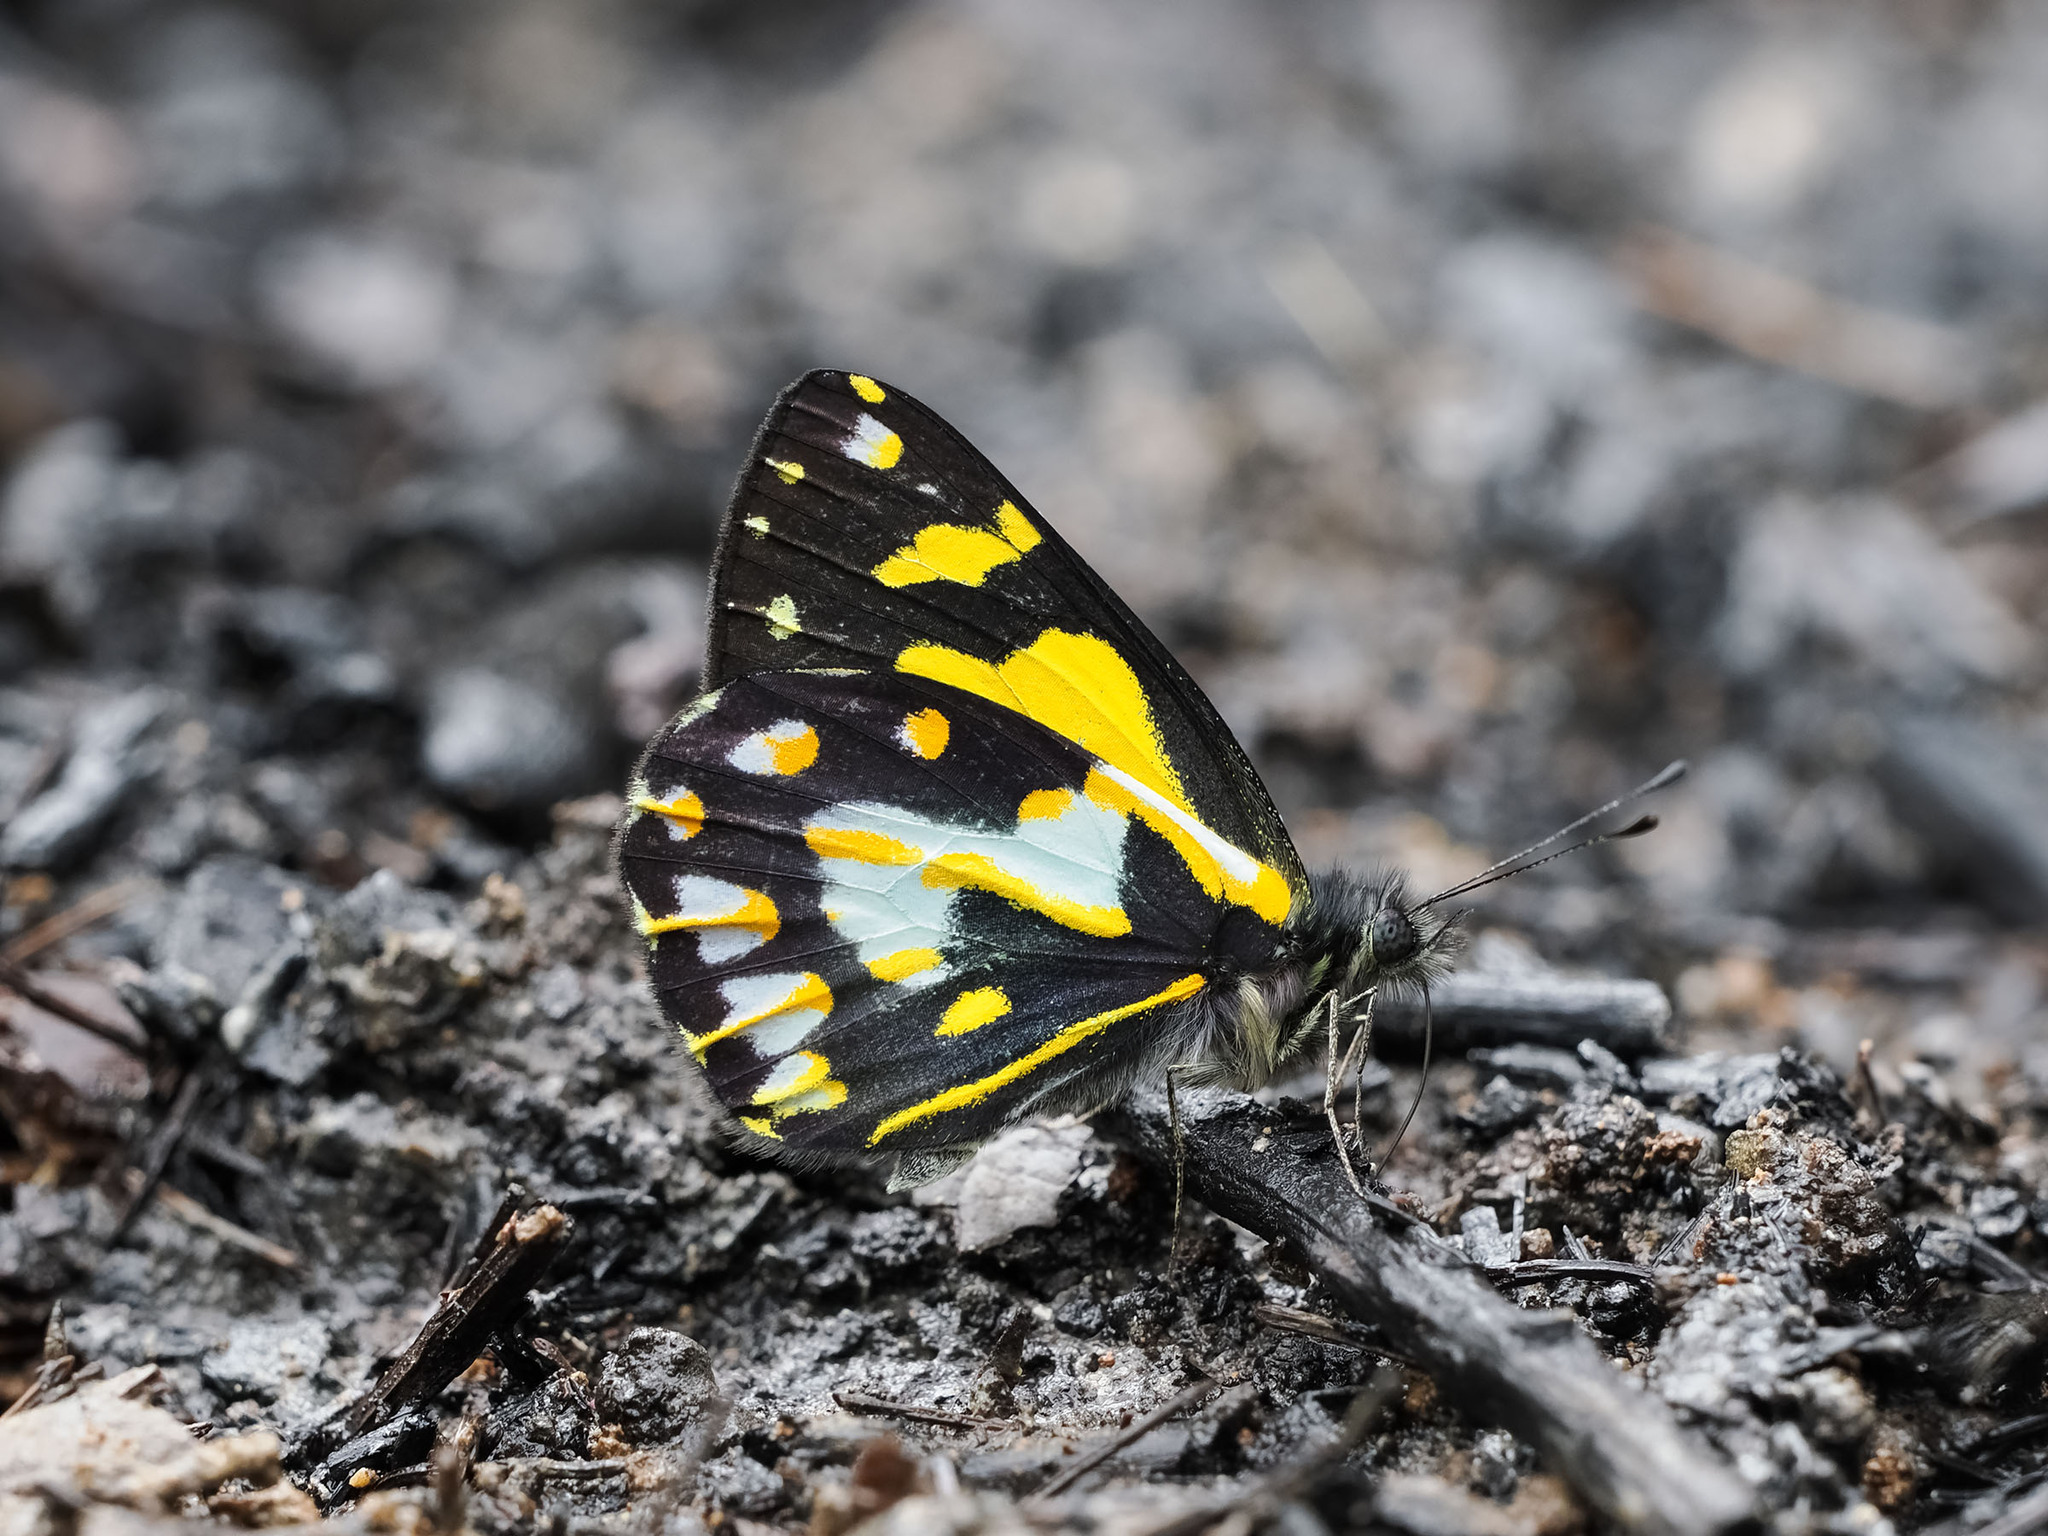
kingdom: Animalia
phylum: Arthropoda
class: Insecta
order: Lepidoptera
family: Pieridae
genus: Delias
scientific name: Delias toxopei
